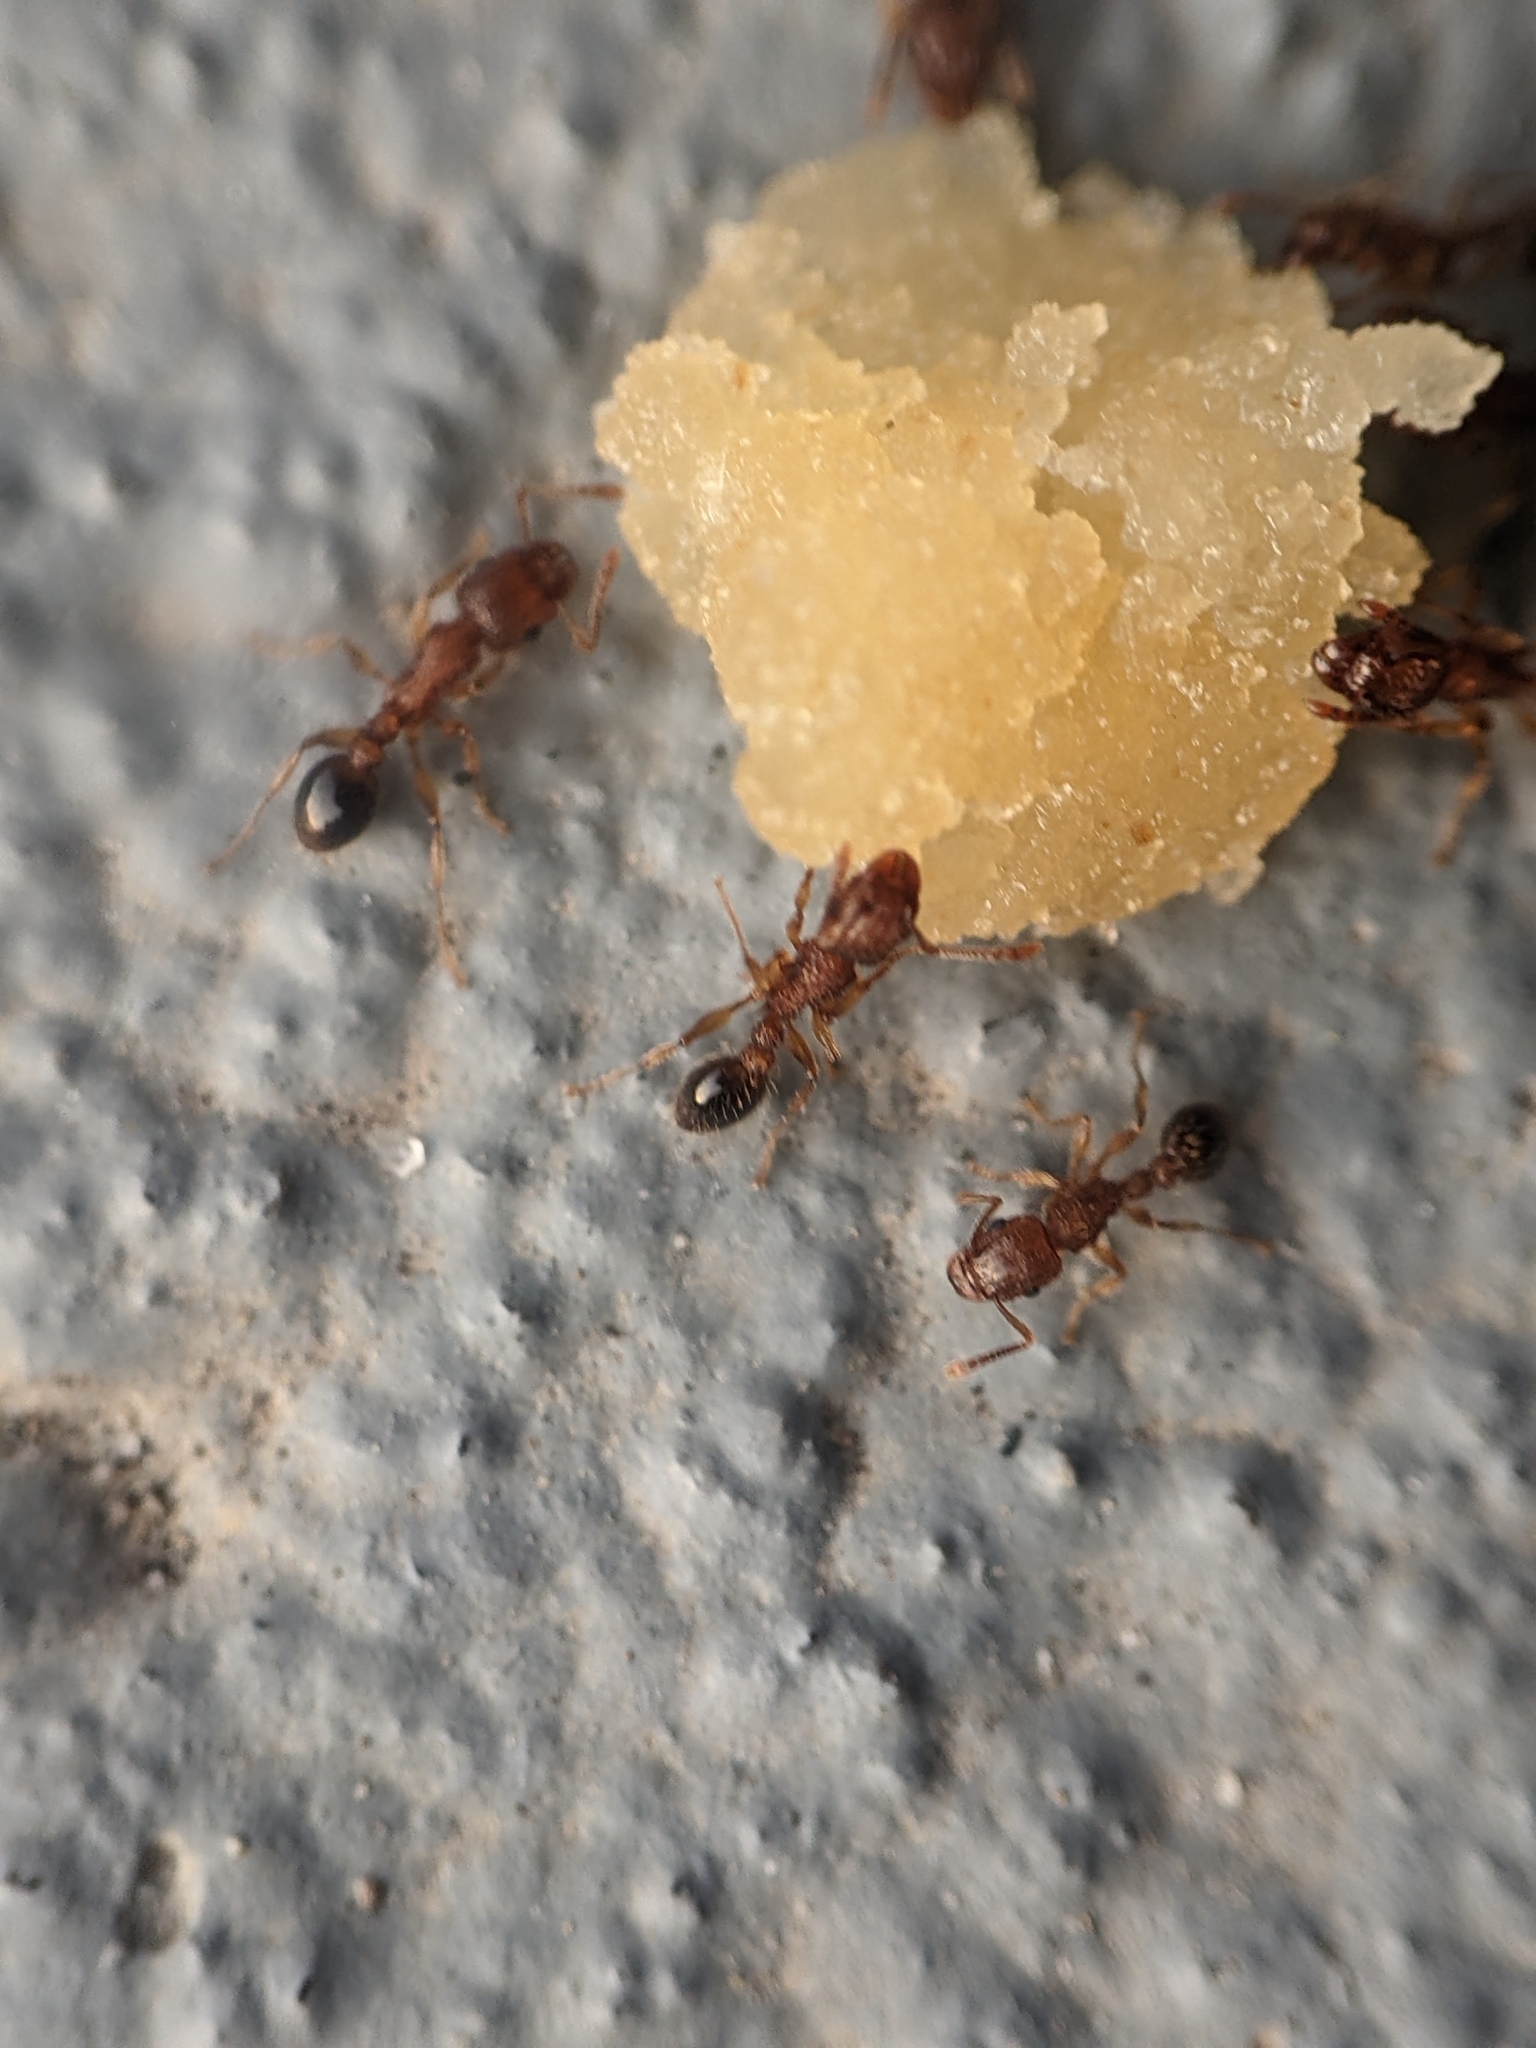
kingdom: Animalia
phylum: Arthropoda
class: Insecta
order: Hymenoptera
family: Formicidae
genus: Tetramorium
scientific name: Tetramorium bicarinatum
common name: Guinea ant
